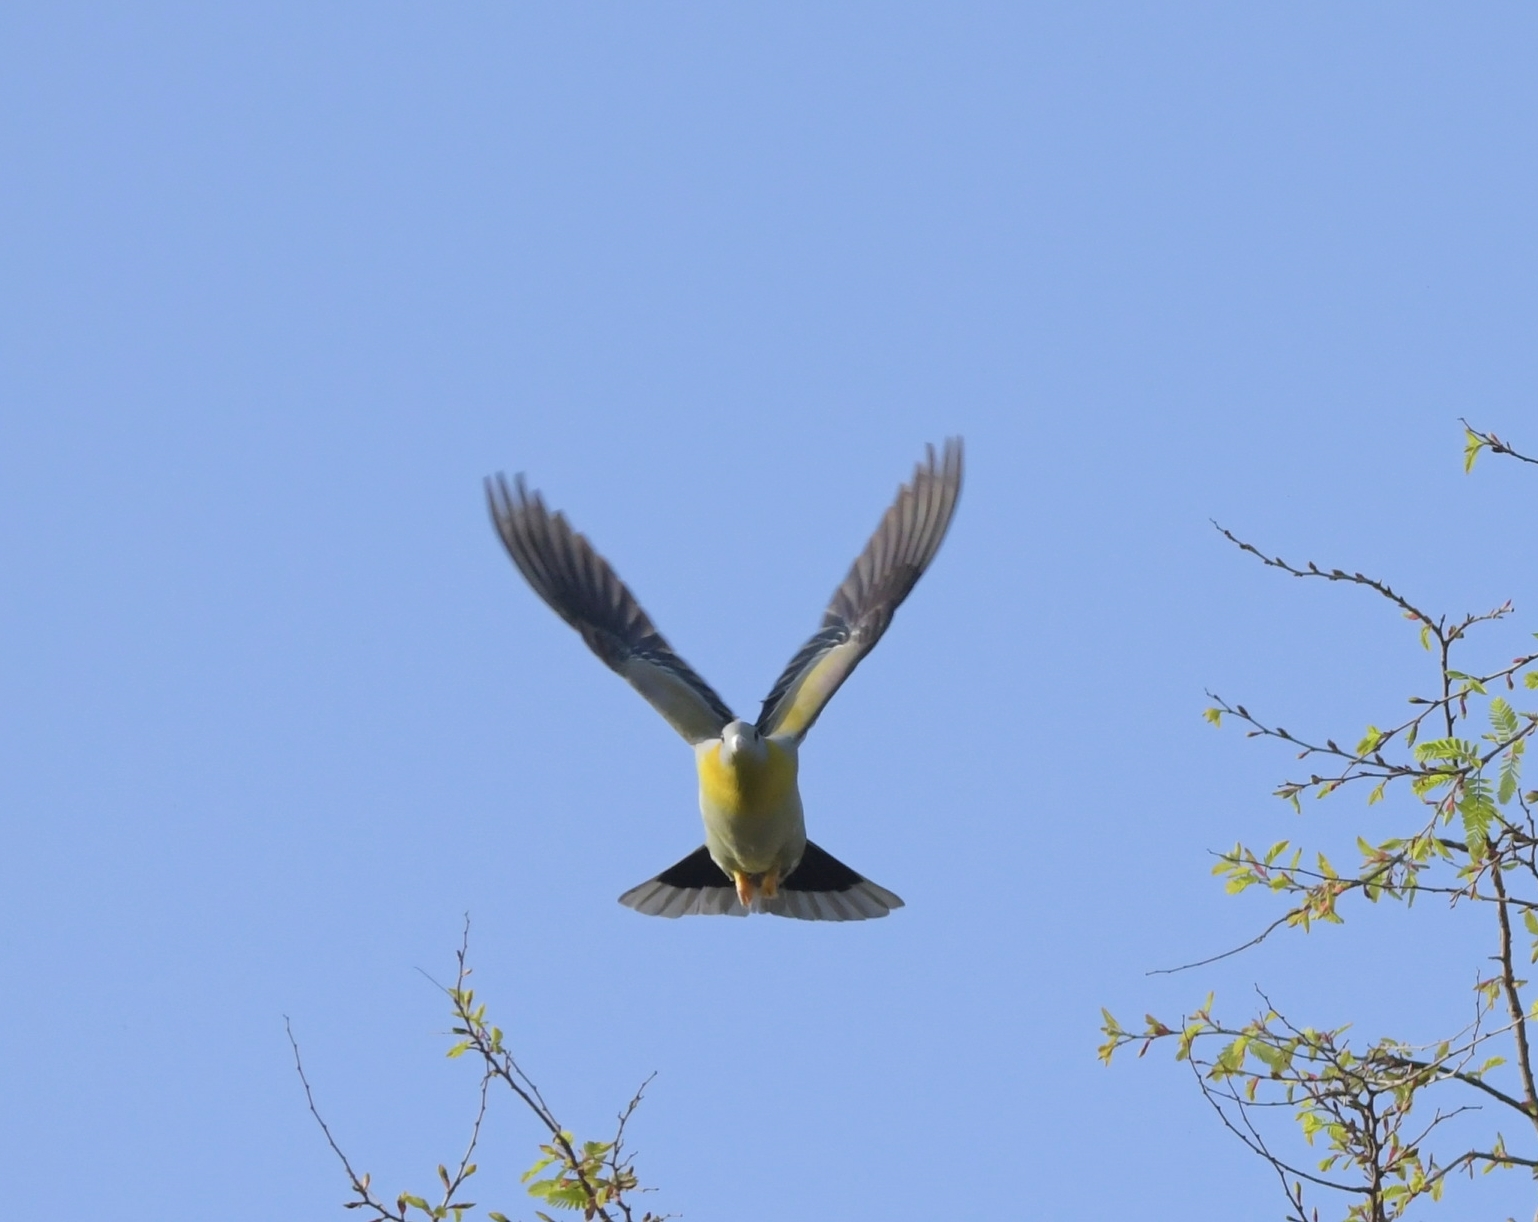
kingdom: Animalia
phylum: Chordata
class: Aves
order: Columbiformes
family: Columbidae
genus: Treron
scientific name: Treron phoenicopterus
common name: Yellow-footed green pigeon
